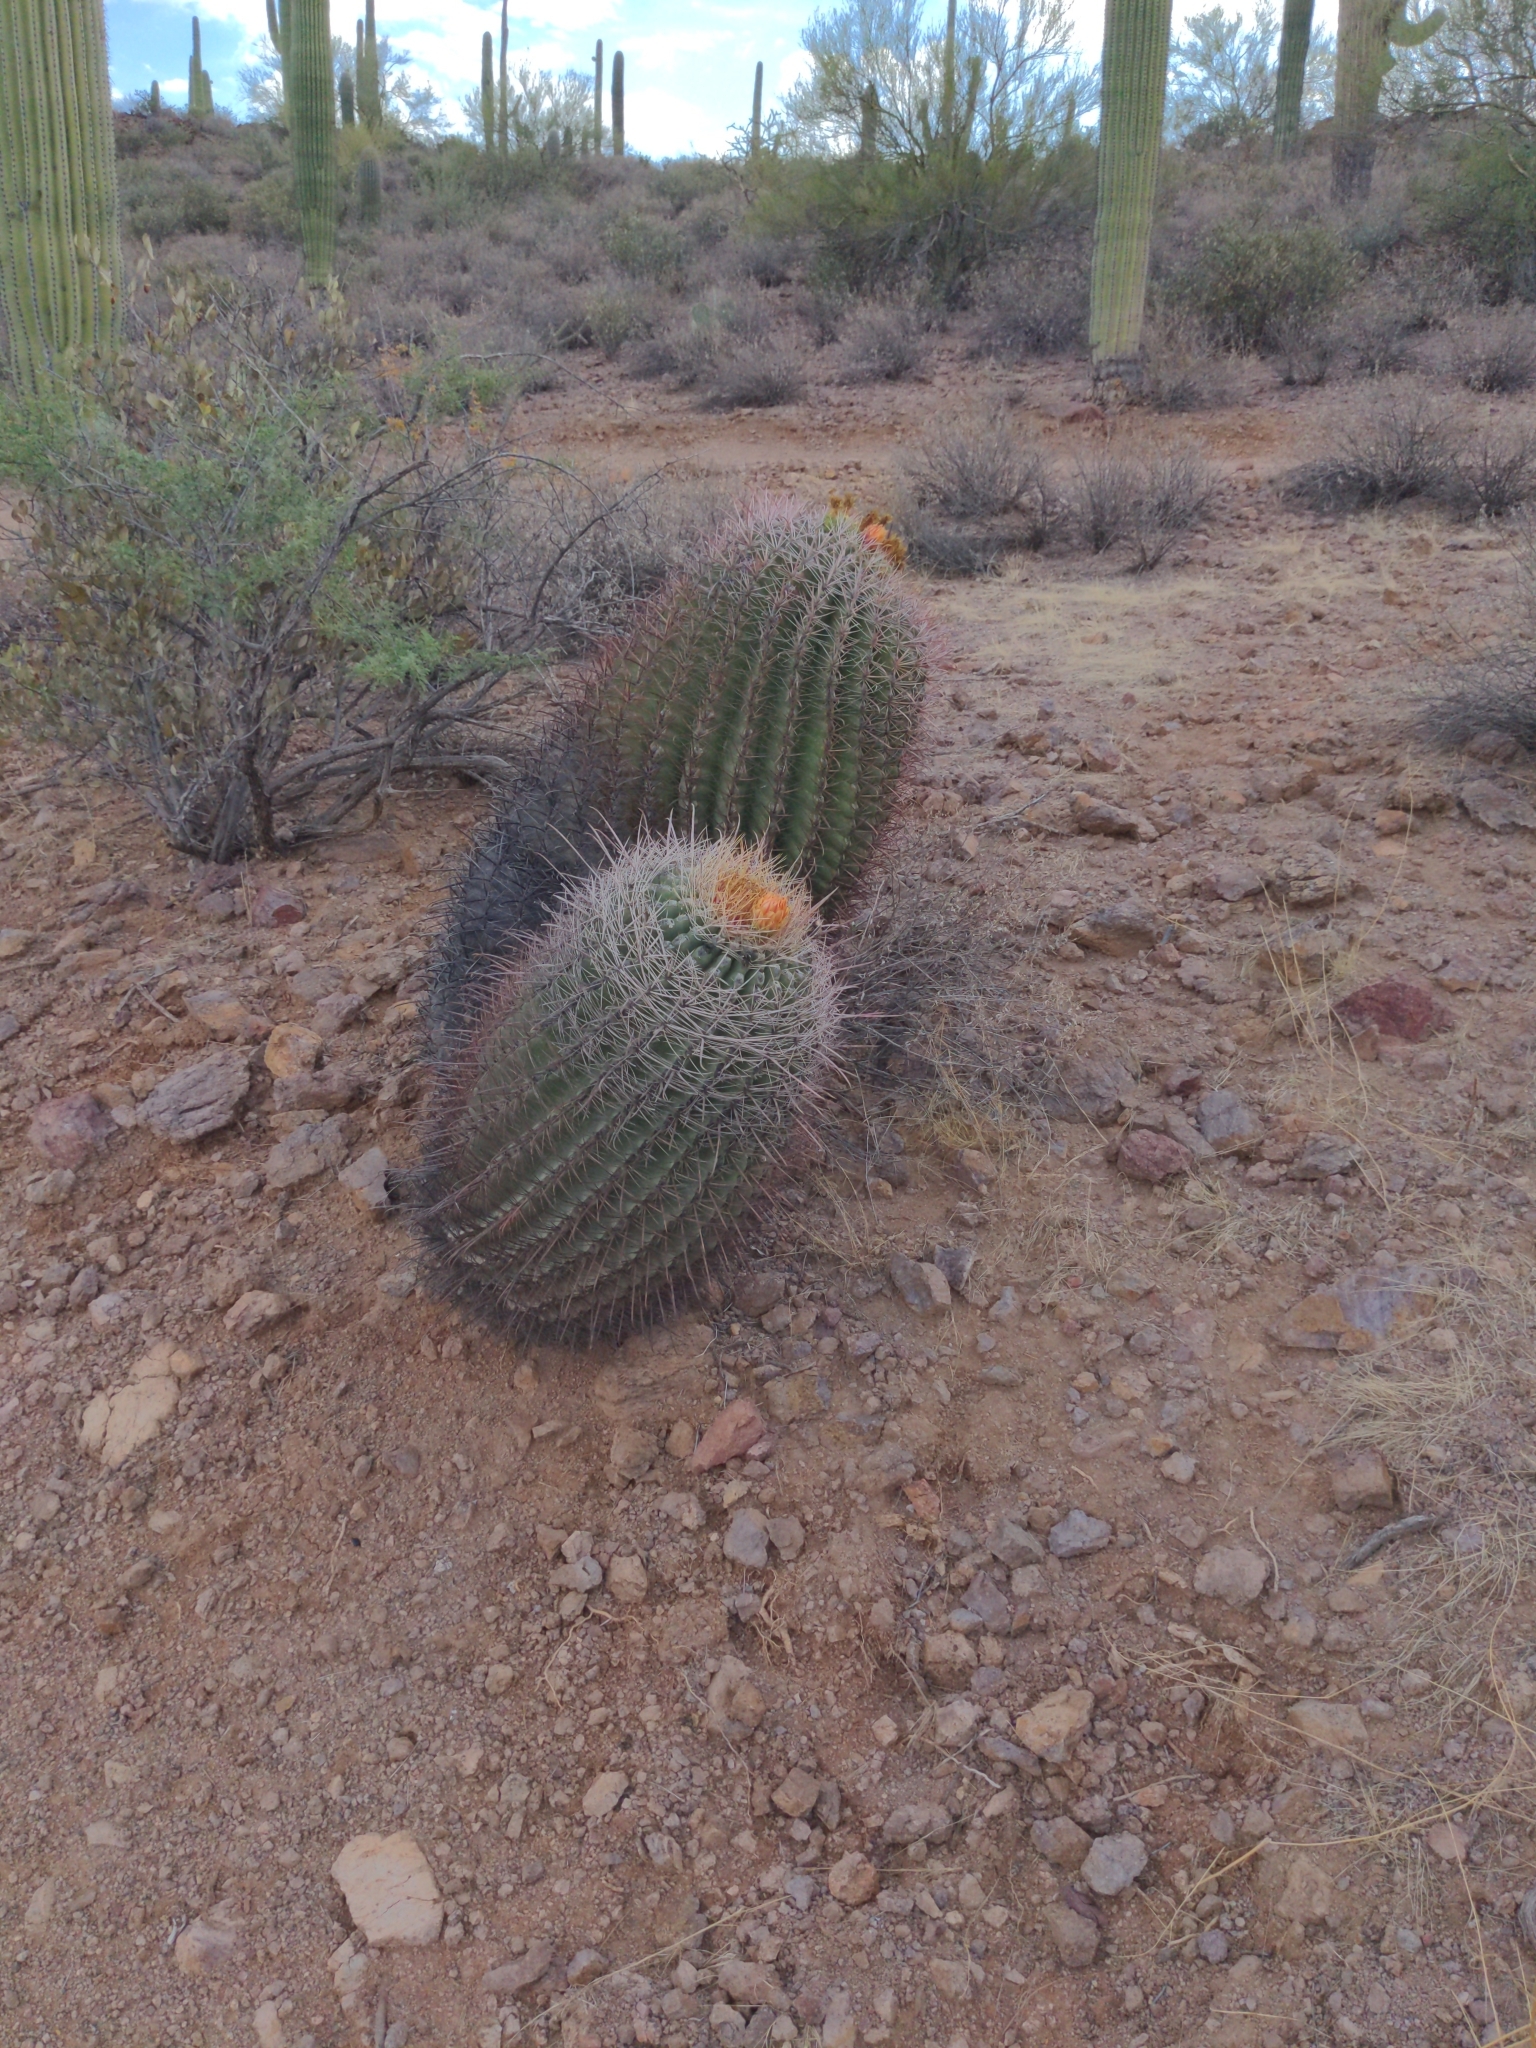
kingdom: Plantae
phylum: Tracheophyta
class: Magnoliopsida
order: Caryophyllales
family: Cactaceae
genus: Ferocactus
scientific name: Ferocactus wislizeni
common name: Candy barrel cactus
